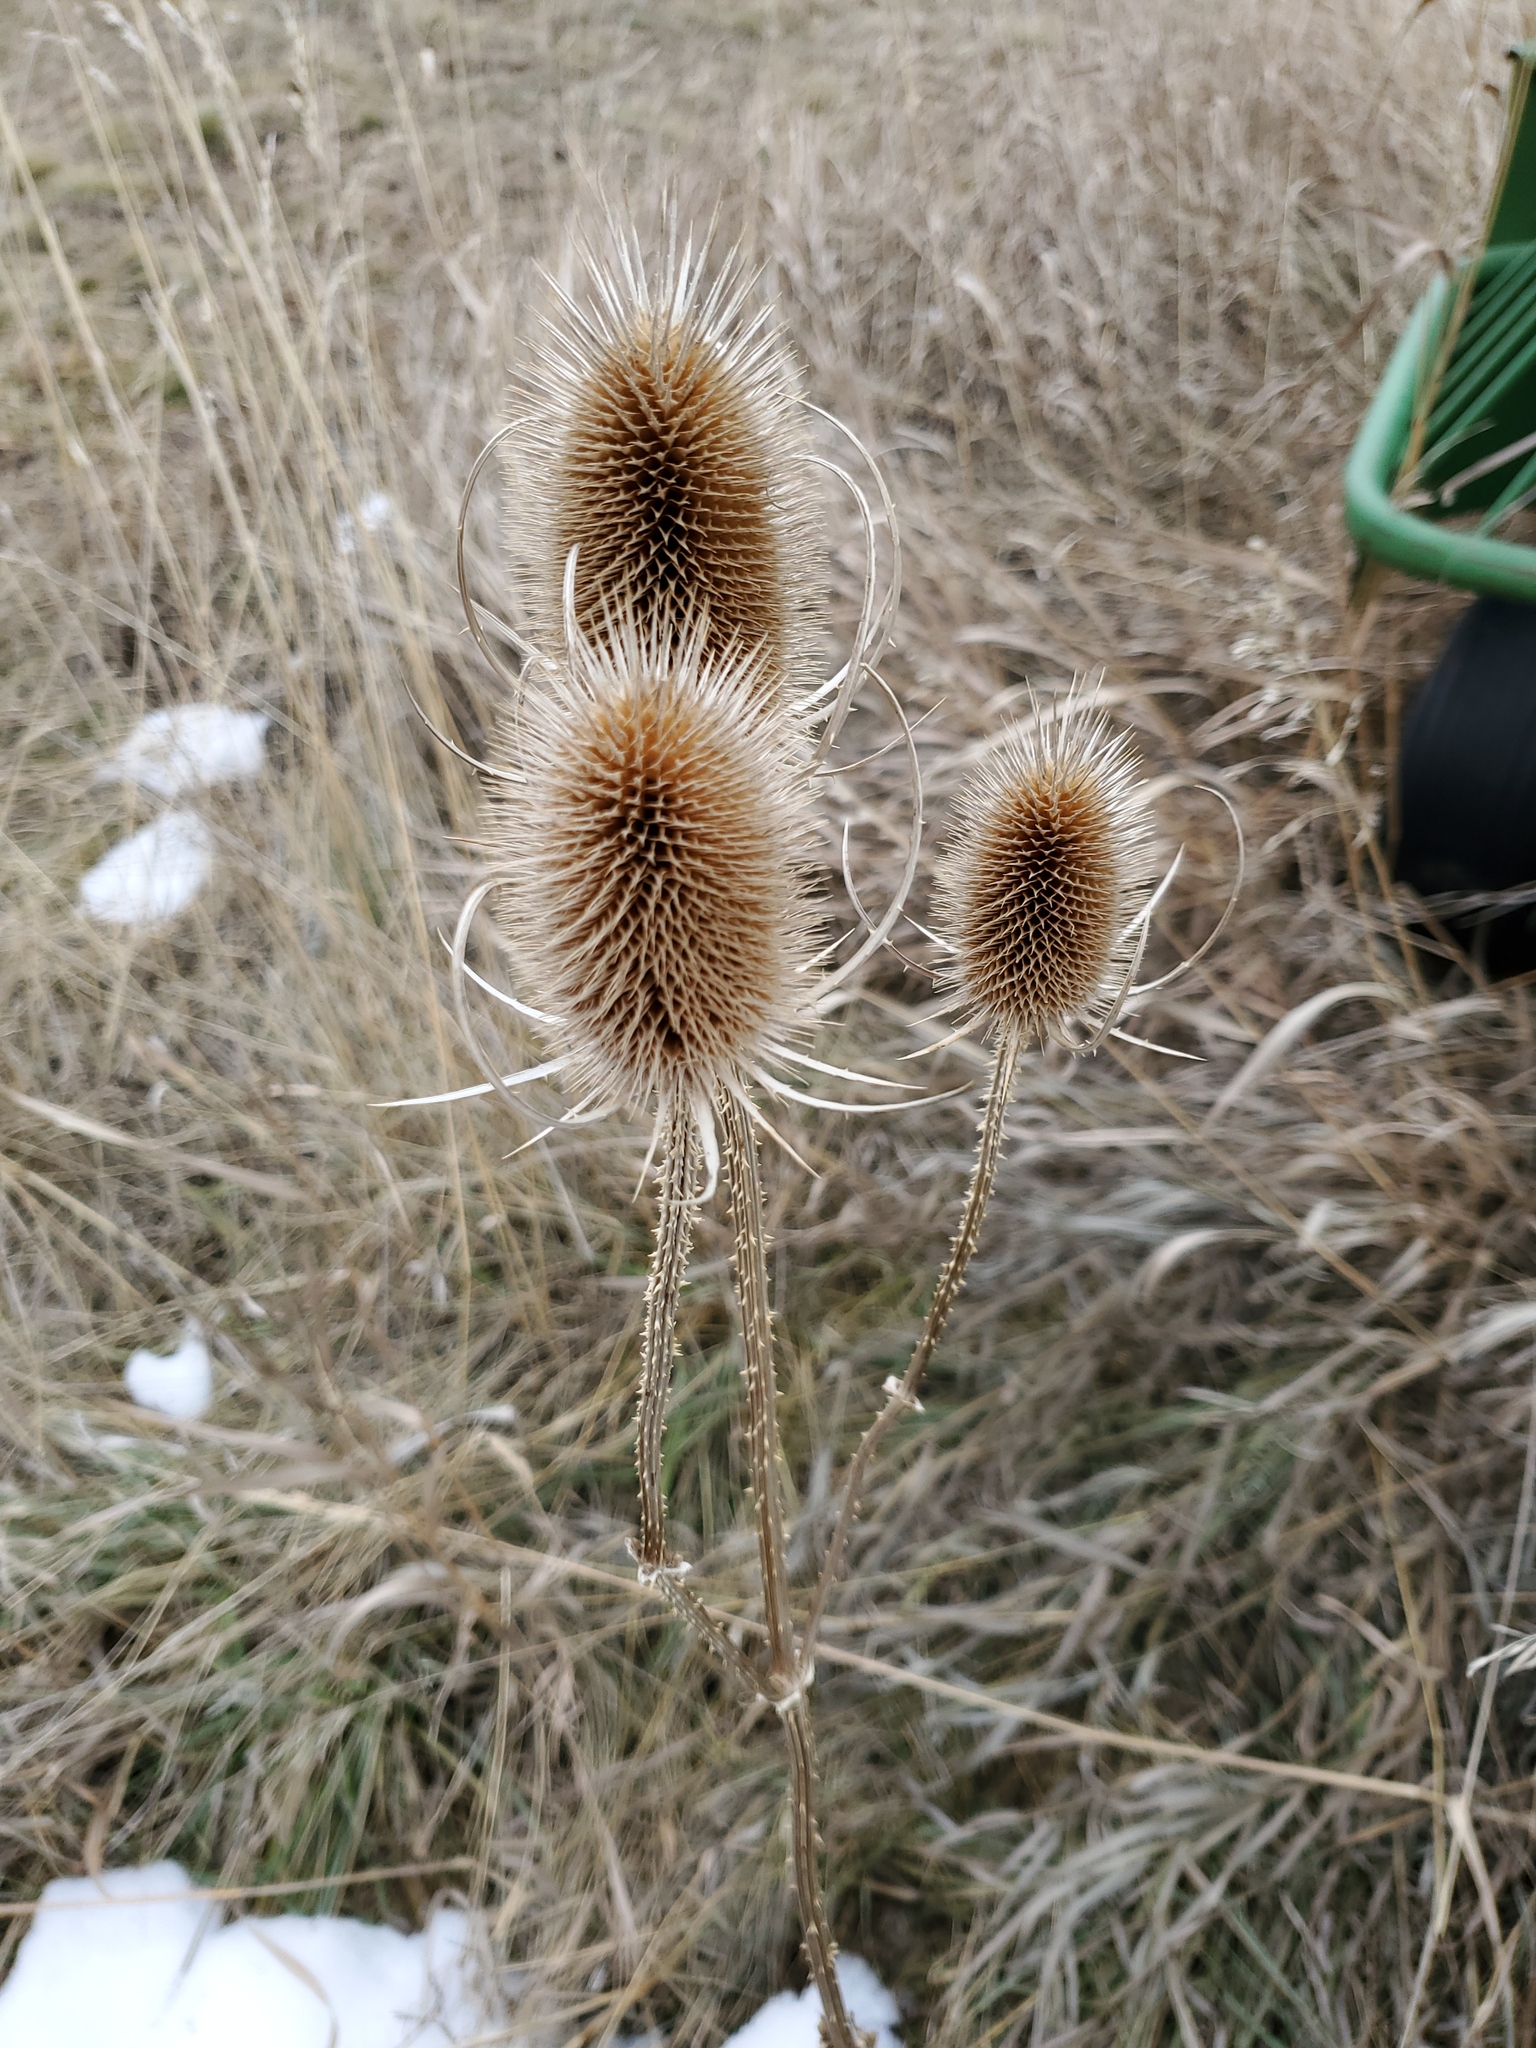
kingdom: Plantae
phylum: Tracheophyta
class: Magnoliopsida
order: Dipsacales
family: Caprifoliaceae
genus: Dipsacus
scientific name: Dipsacus fullonum
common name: Teasel
